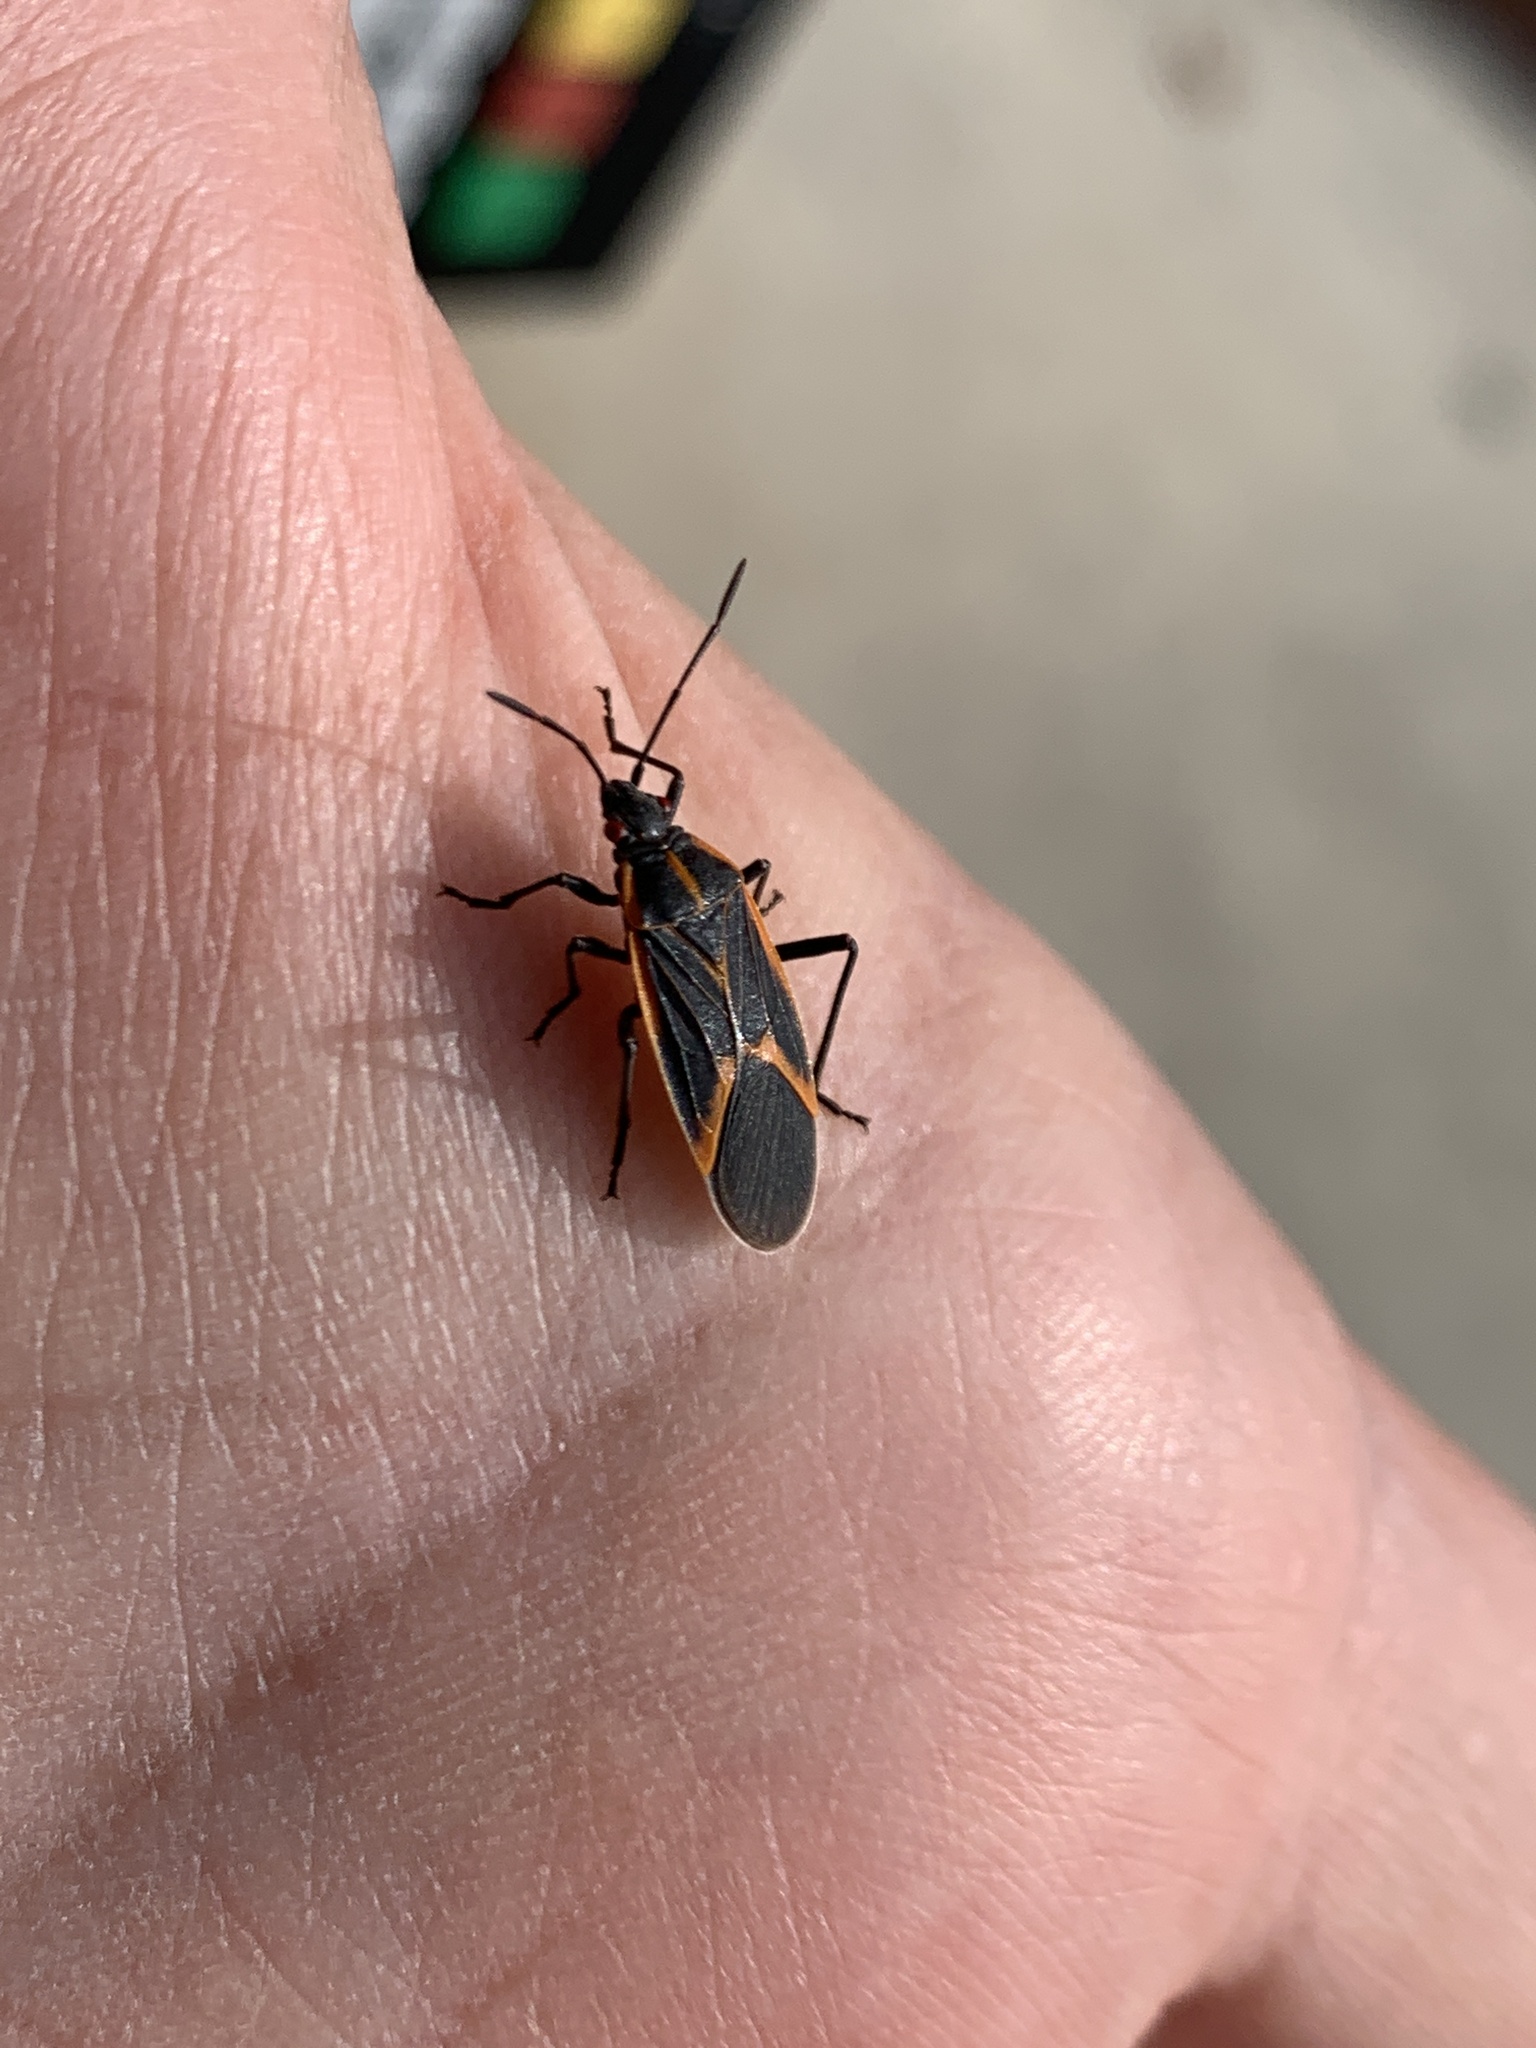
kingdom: Animalia
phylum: Arthropoda
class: Insecta
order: Hemiptera
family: Rhopalidae
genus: Boisea
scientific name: Boisea trivittata
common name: Boxelder bug
